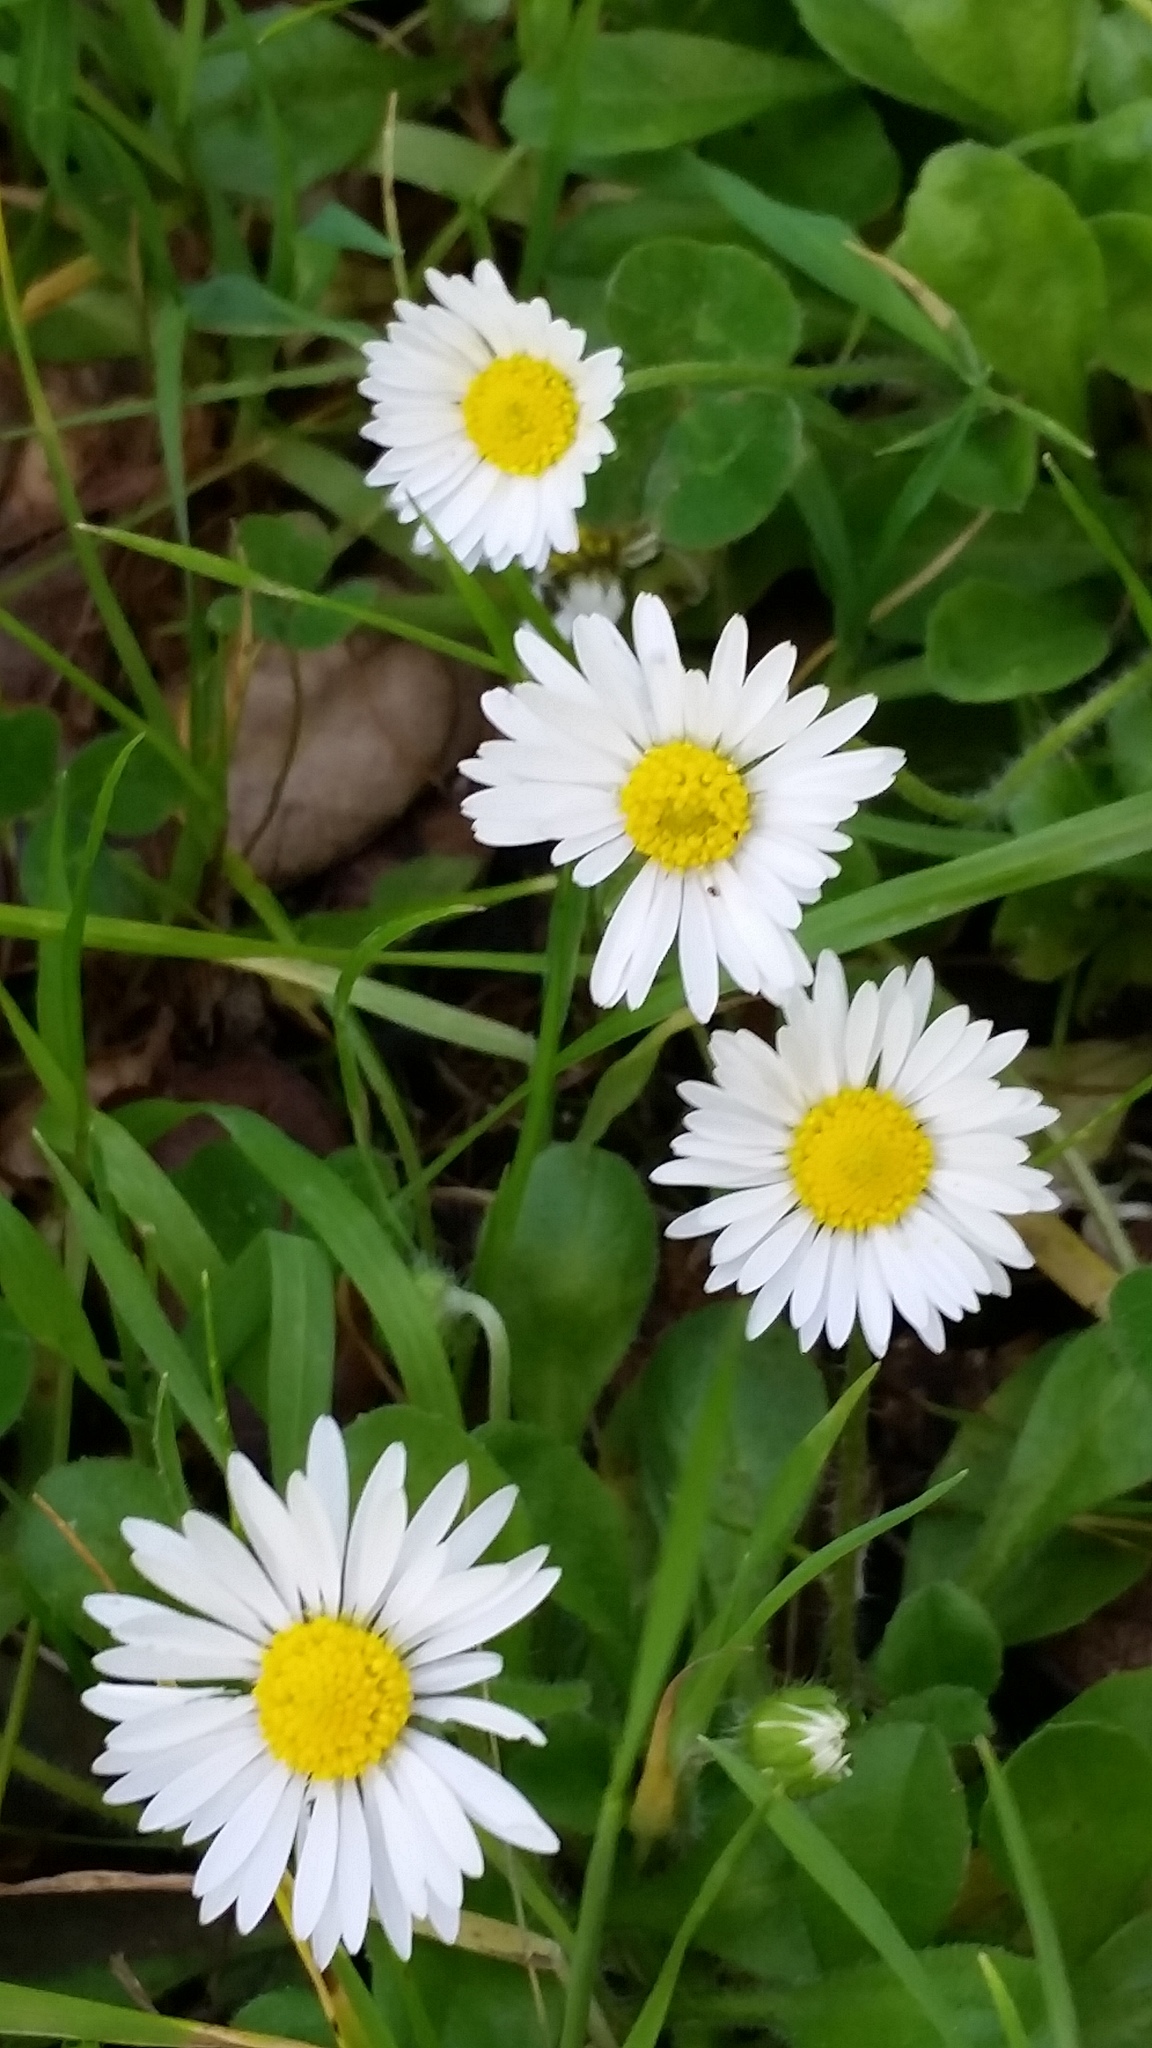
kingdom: Plantae
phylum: Tracheophyta
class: Magnoliopsida
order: Asterales
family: Asteraceae
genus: Bellis
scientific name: Bellis perennis
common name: Lawndaisy
